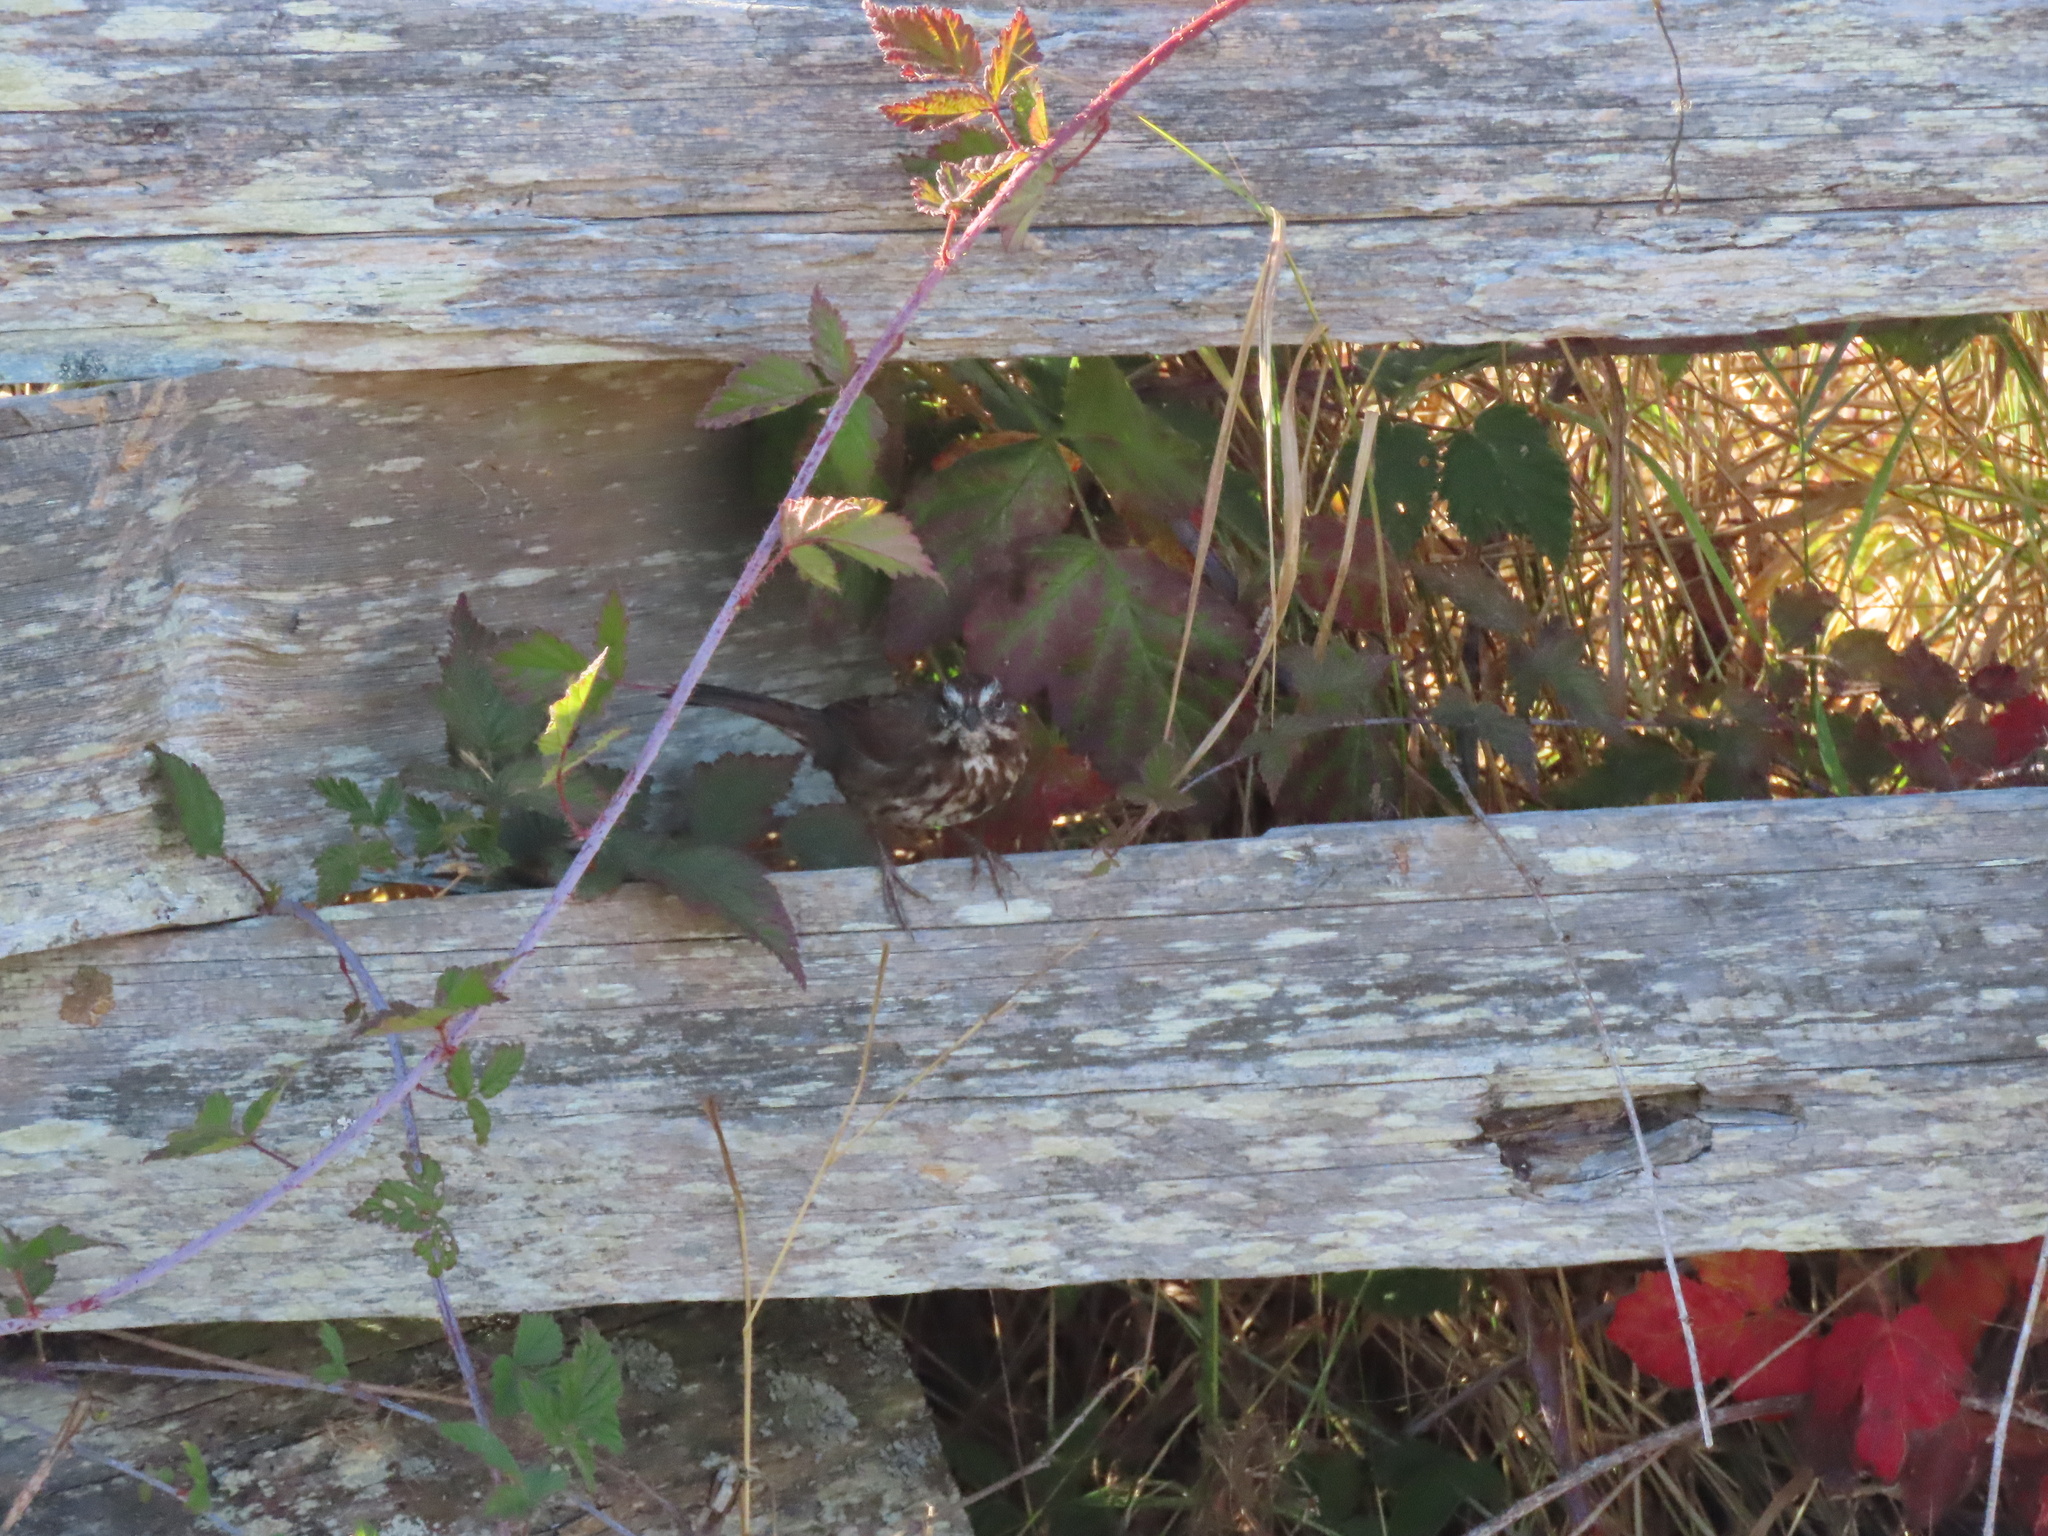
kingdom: Animalia
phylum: Chordata
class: Aves
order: Passeriformes
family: Passerellidae
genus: Melospiza
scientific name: Melospiza melodia
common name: Song sparrow
